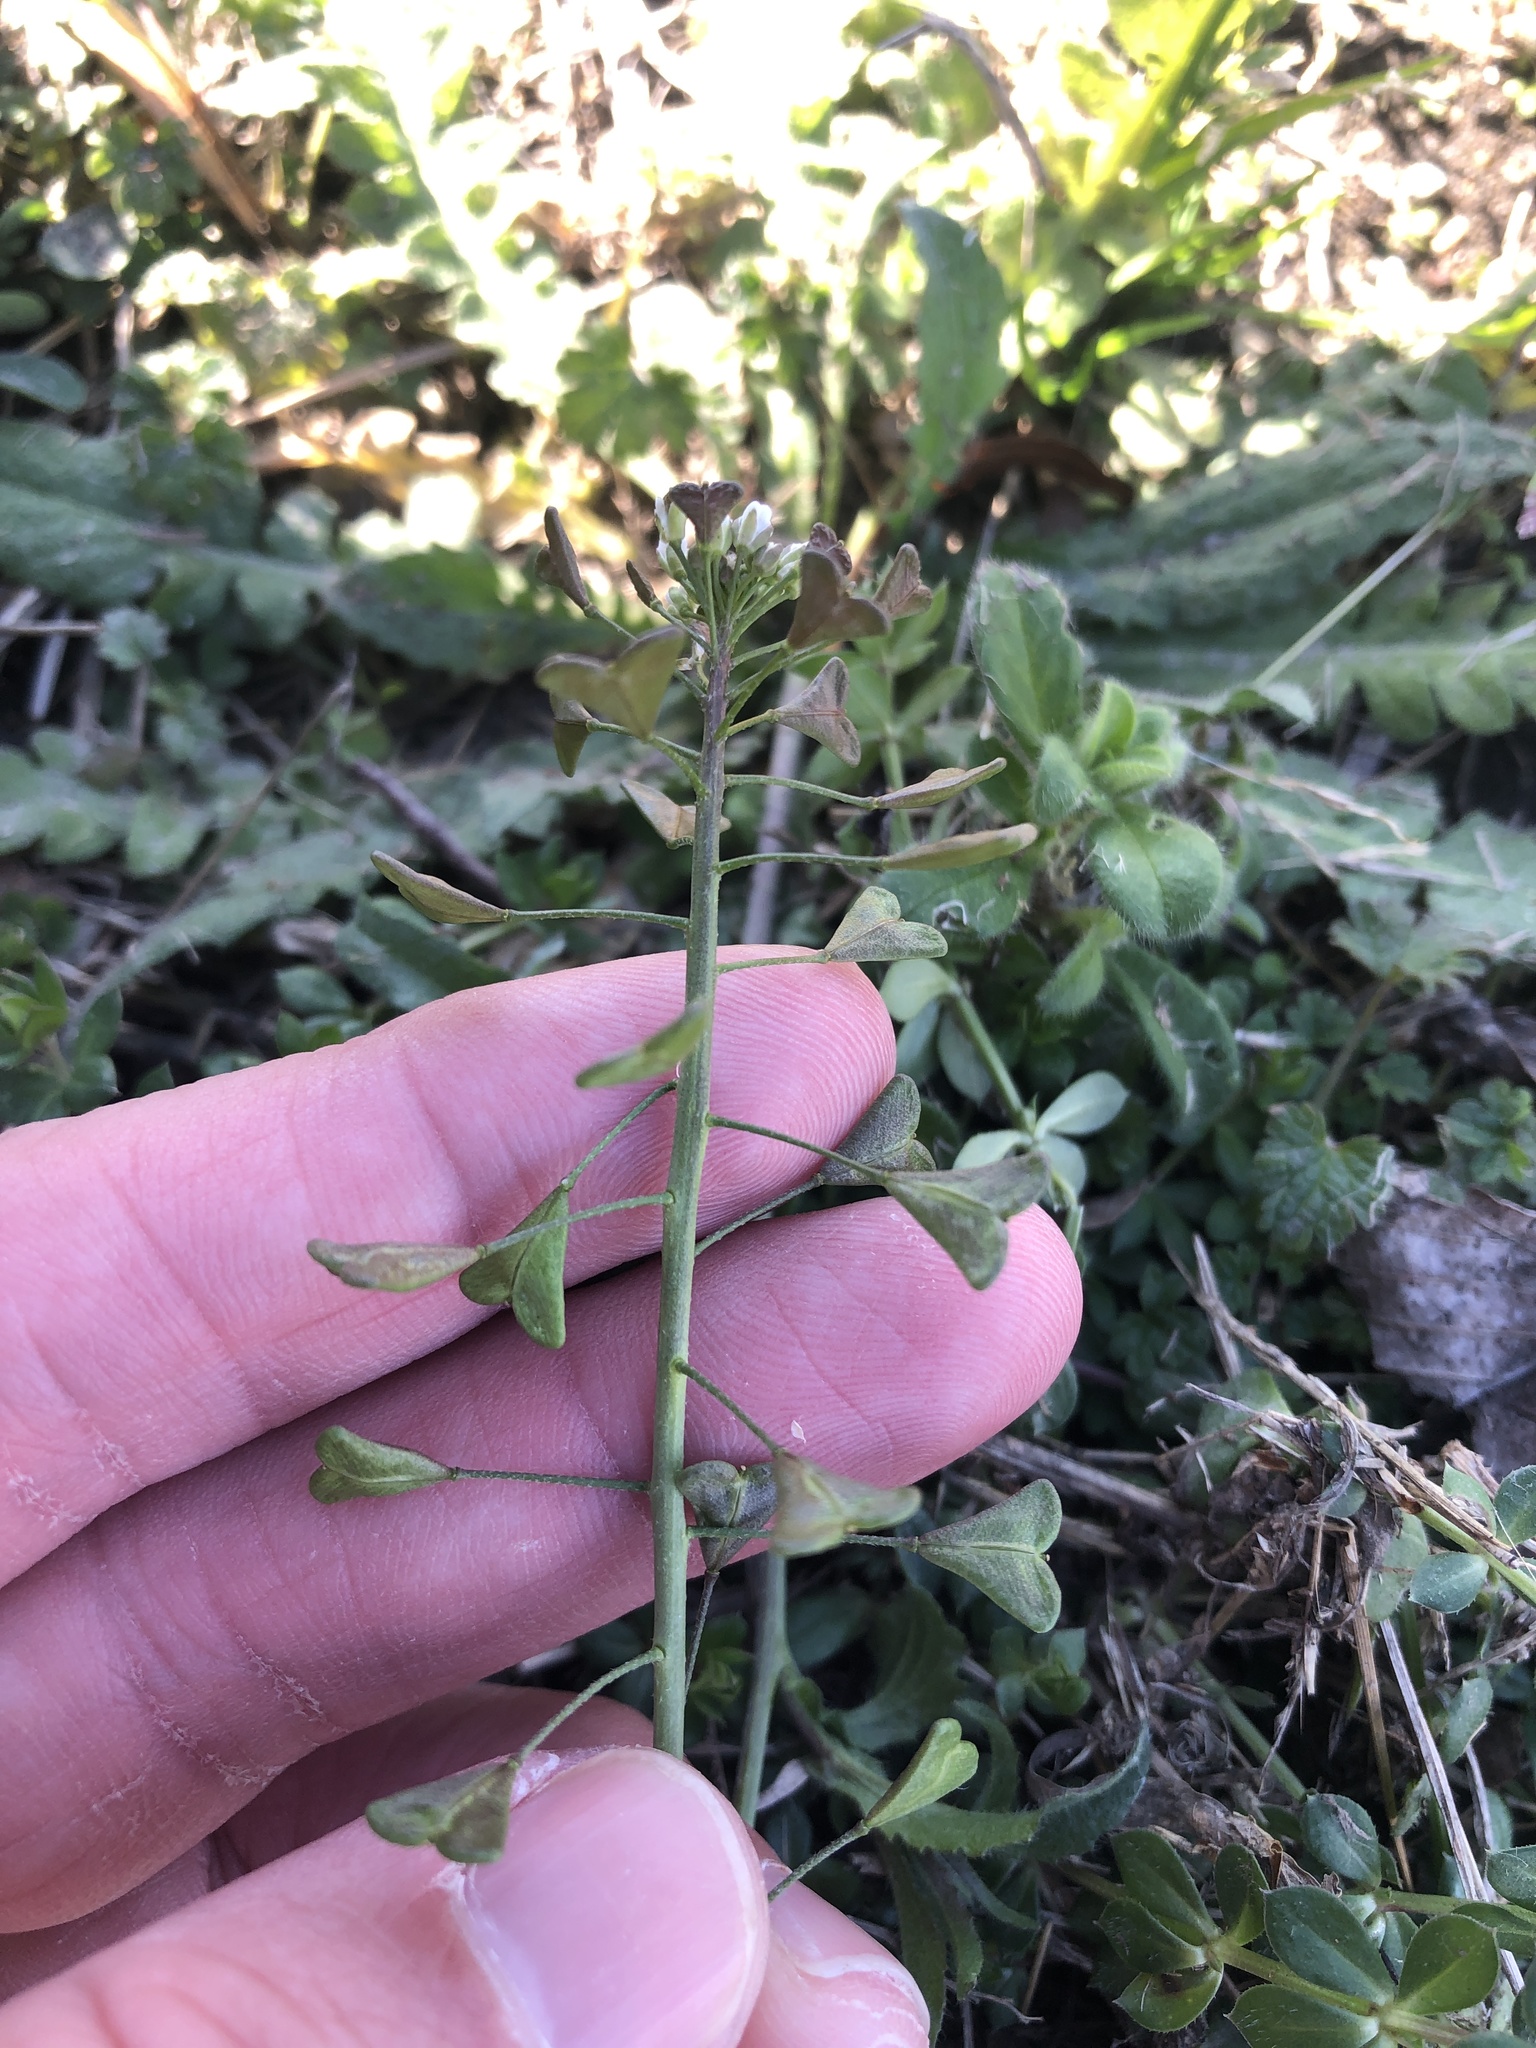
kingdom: Plantae
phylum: Tracheophyta
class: Magnoliopsida
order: Brassicales
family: Brassicaceae
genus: Capsella
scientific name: Capsella bursa-pastoris
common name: Shepherd's purse
